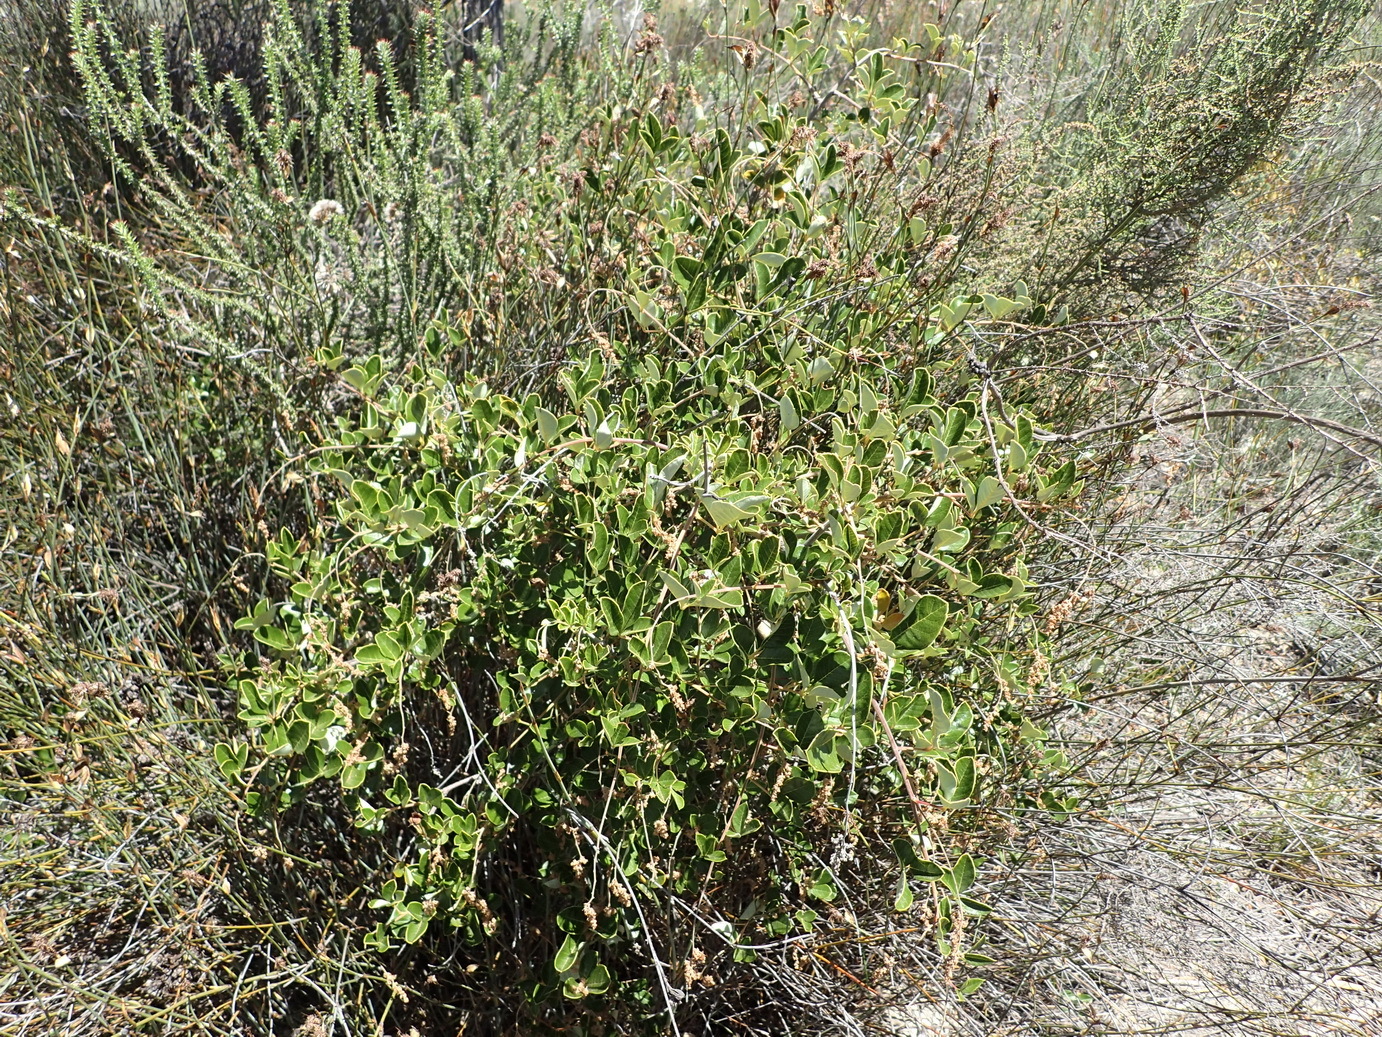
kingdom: Plantae
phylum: Tracheophyta
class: Magnoliopsida
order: Sapindales
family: Anacardiaceae
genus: Searsia
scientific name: Searsia tomentosa
